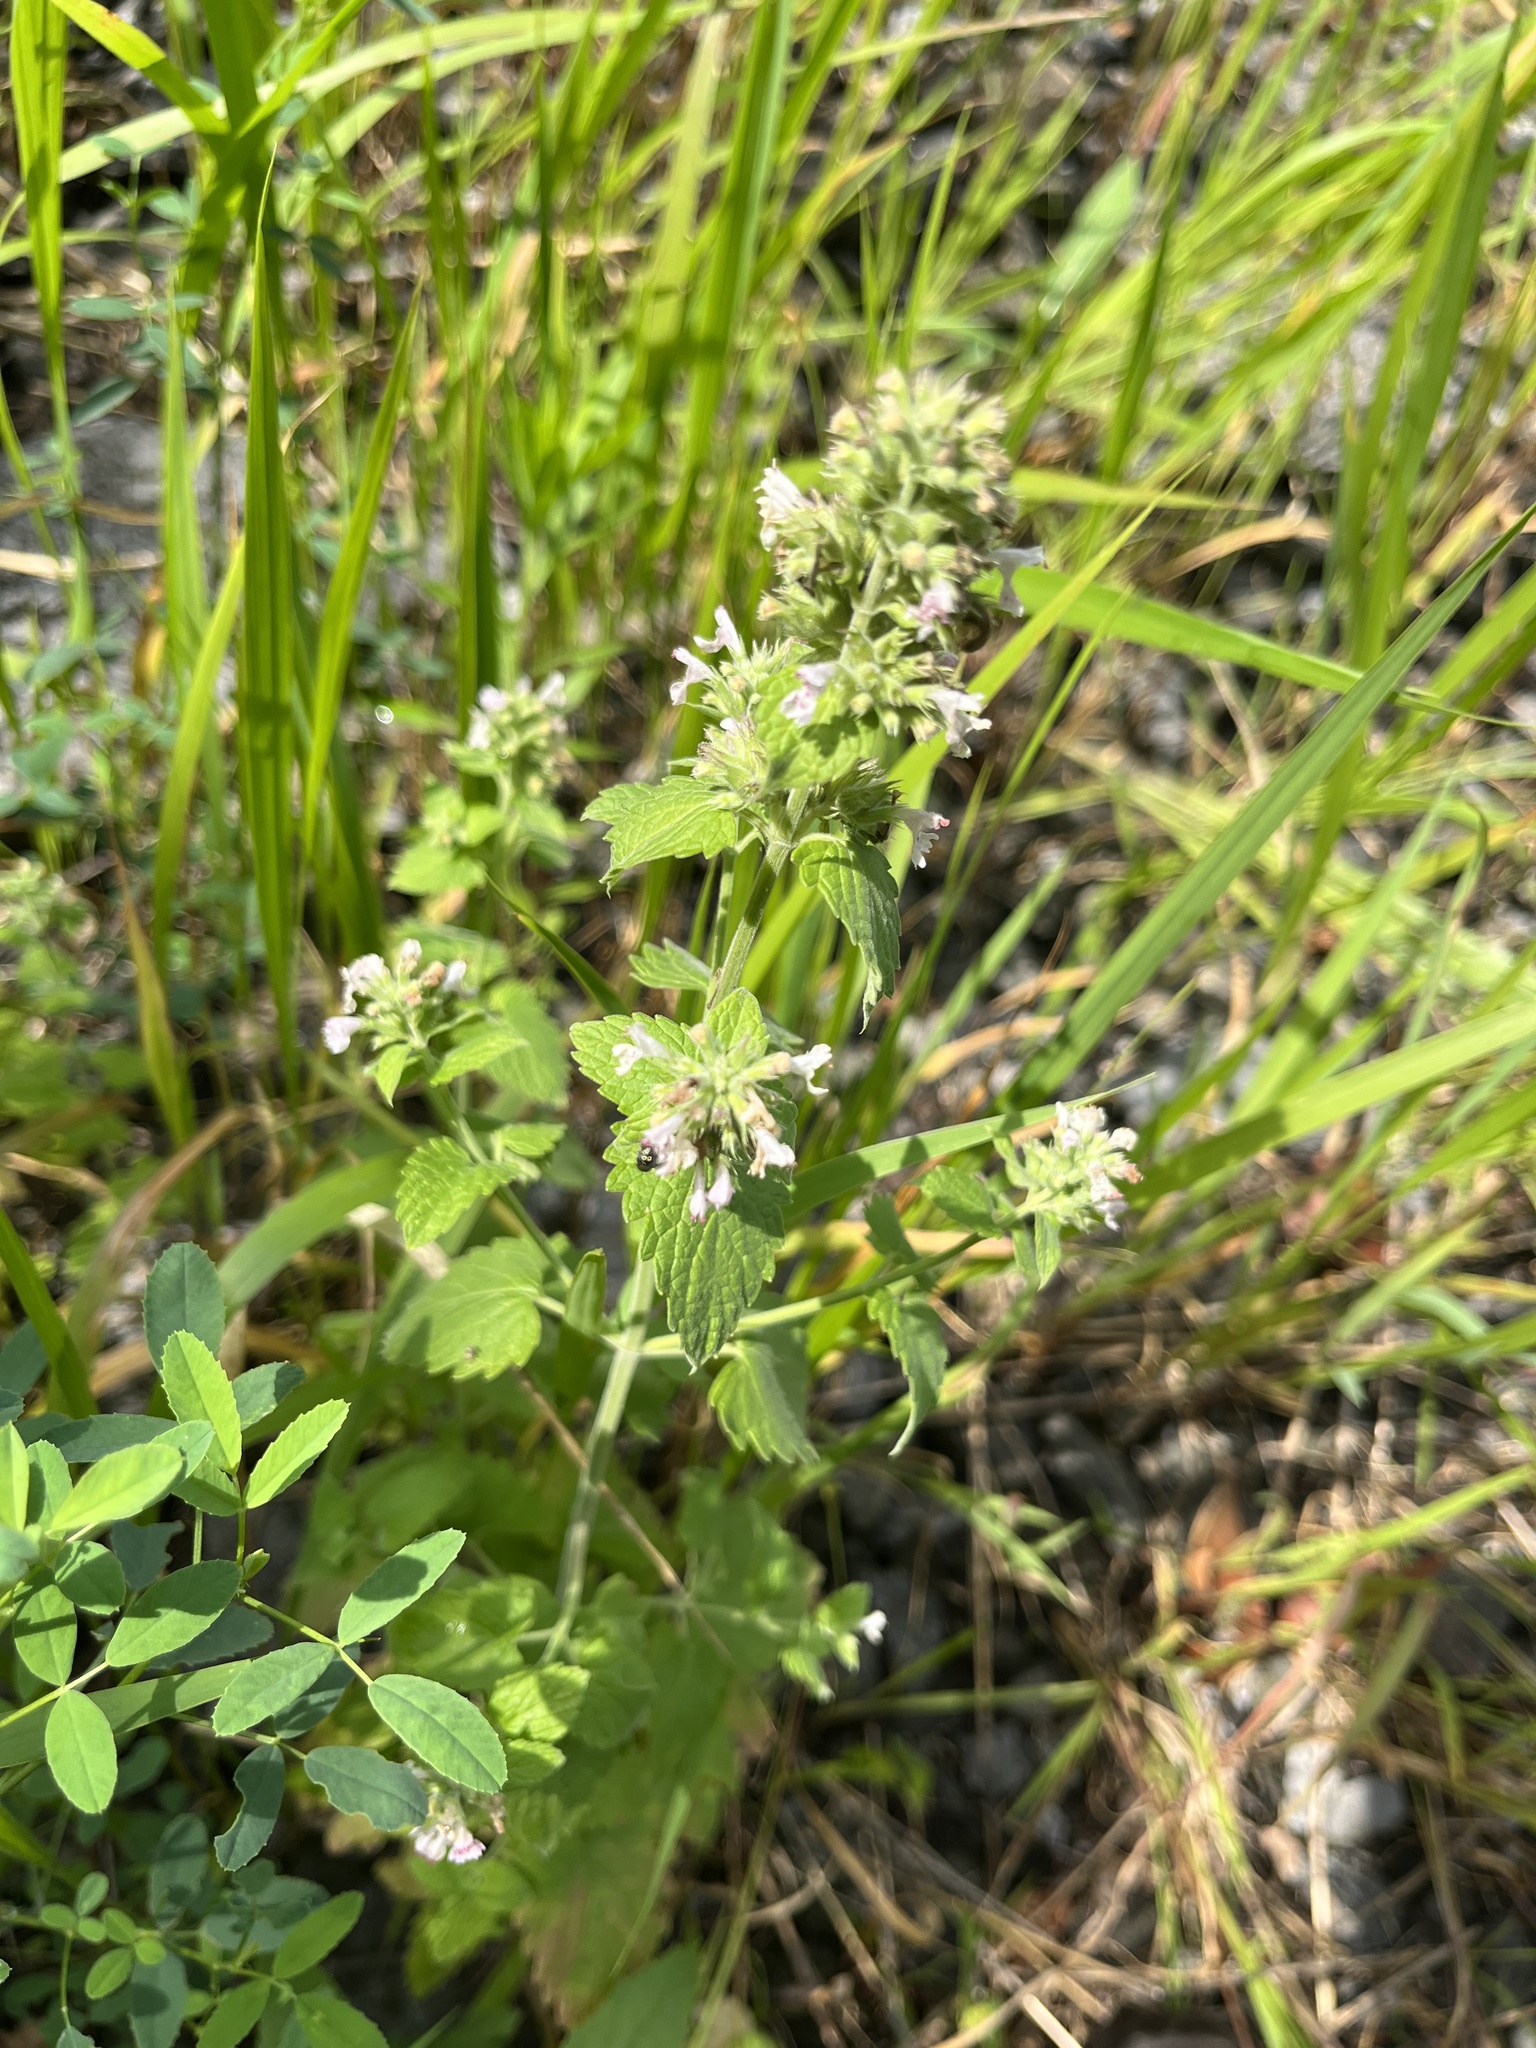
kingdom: Plantae
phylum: Tracheophyta
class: Magnoliopsida
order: Lamiales
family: Lamiaceae
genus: Nepeta
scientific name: Nepeta cataria
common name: Catnip
